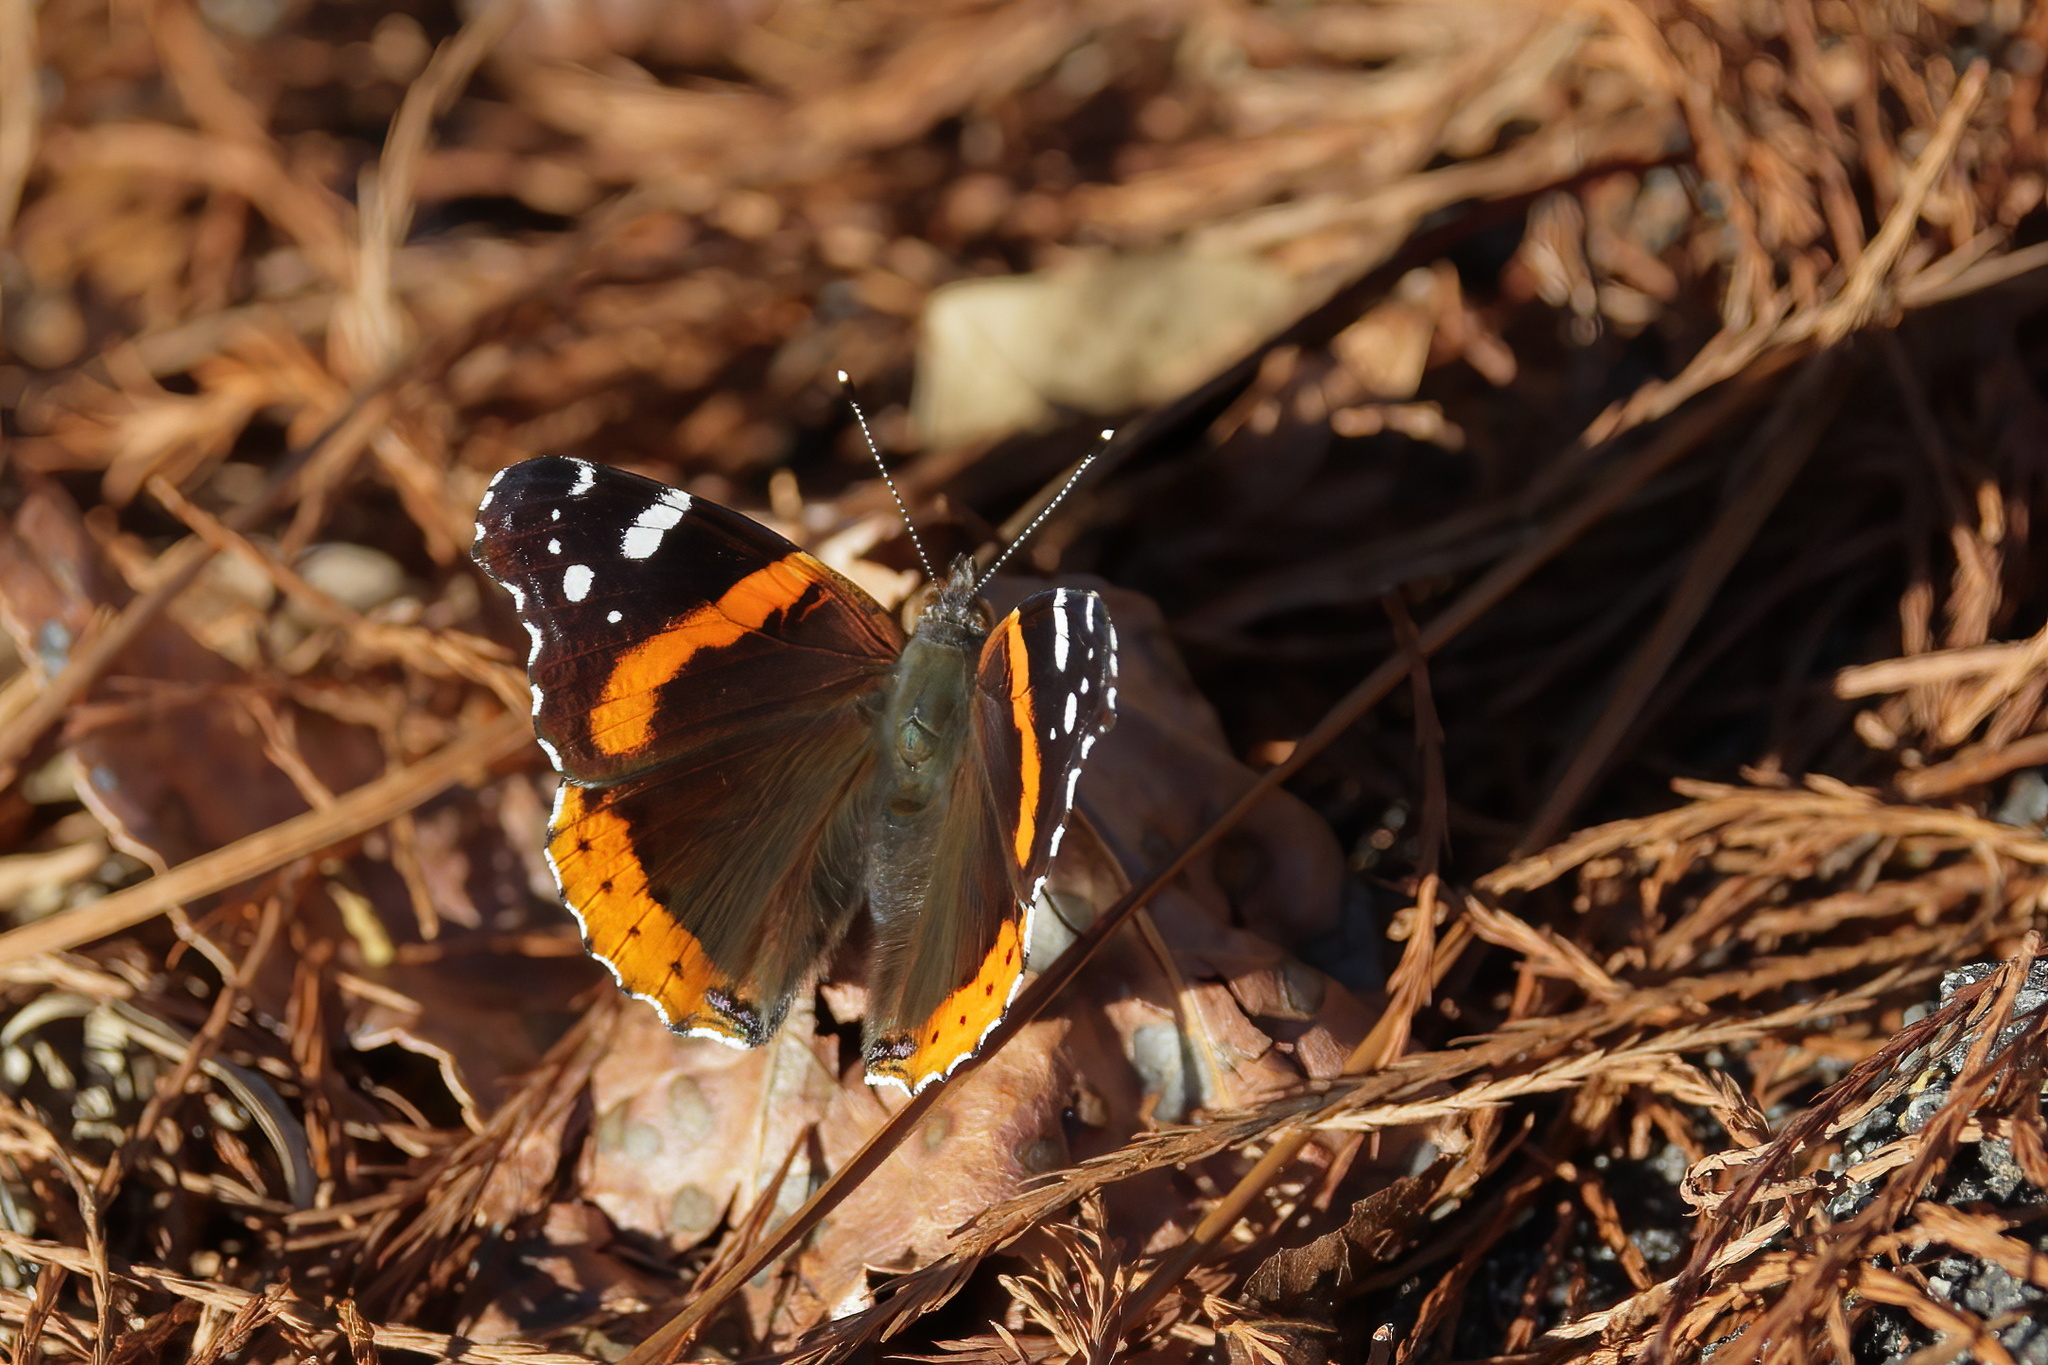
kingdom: Animalia
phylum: Arthropoda
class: Insecta
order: Lepidoptera
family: Nymphalidae
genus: Vanessa
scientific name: Vanessa atalanta
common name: Red admiral
